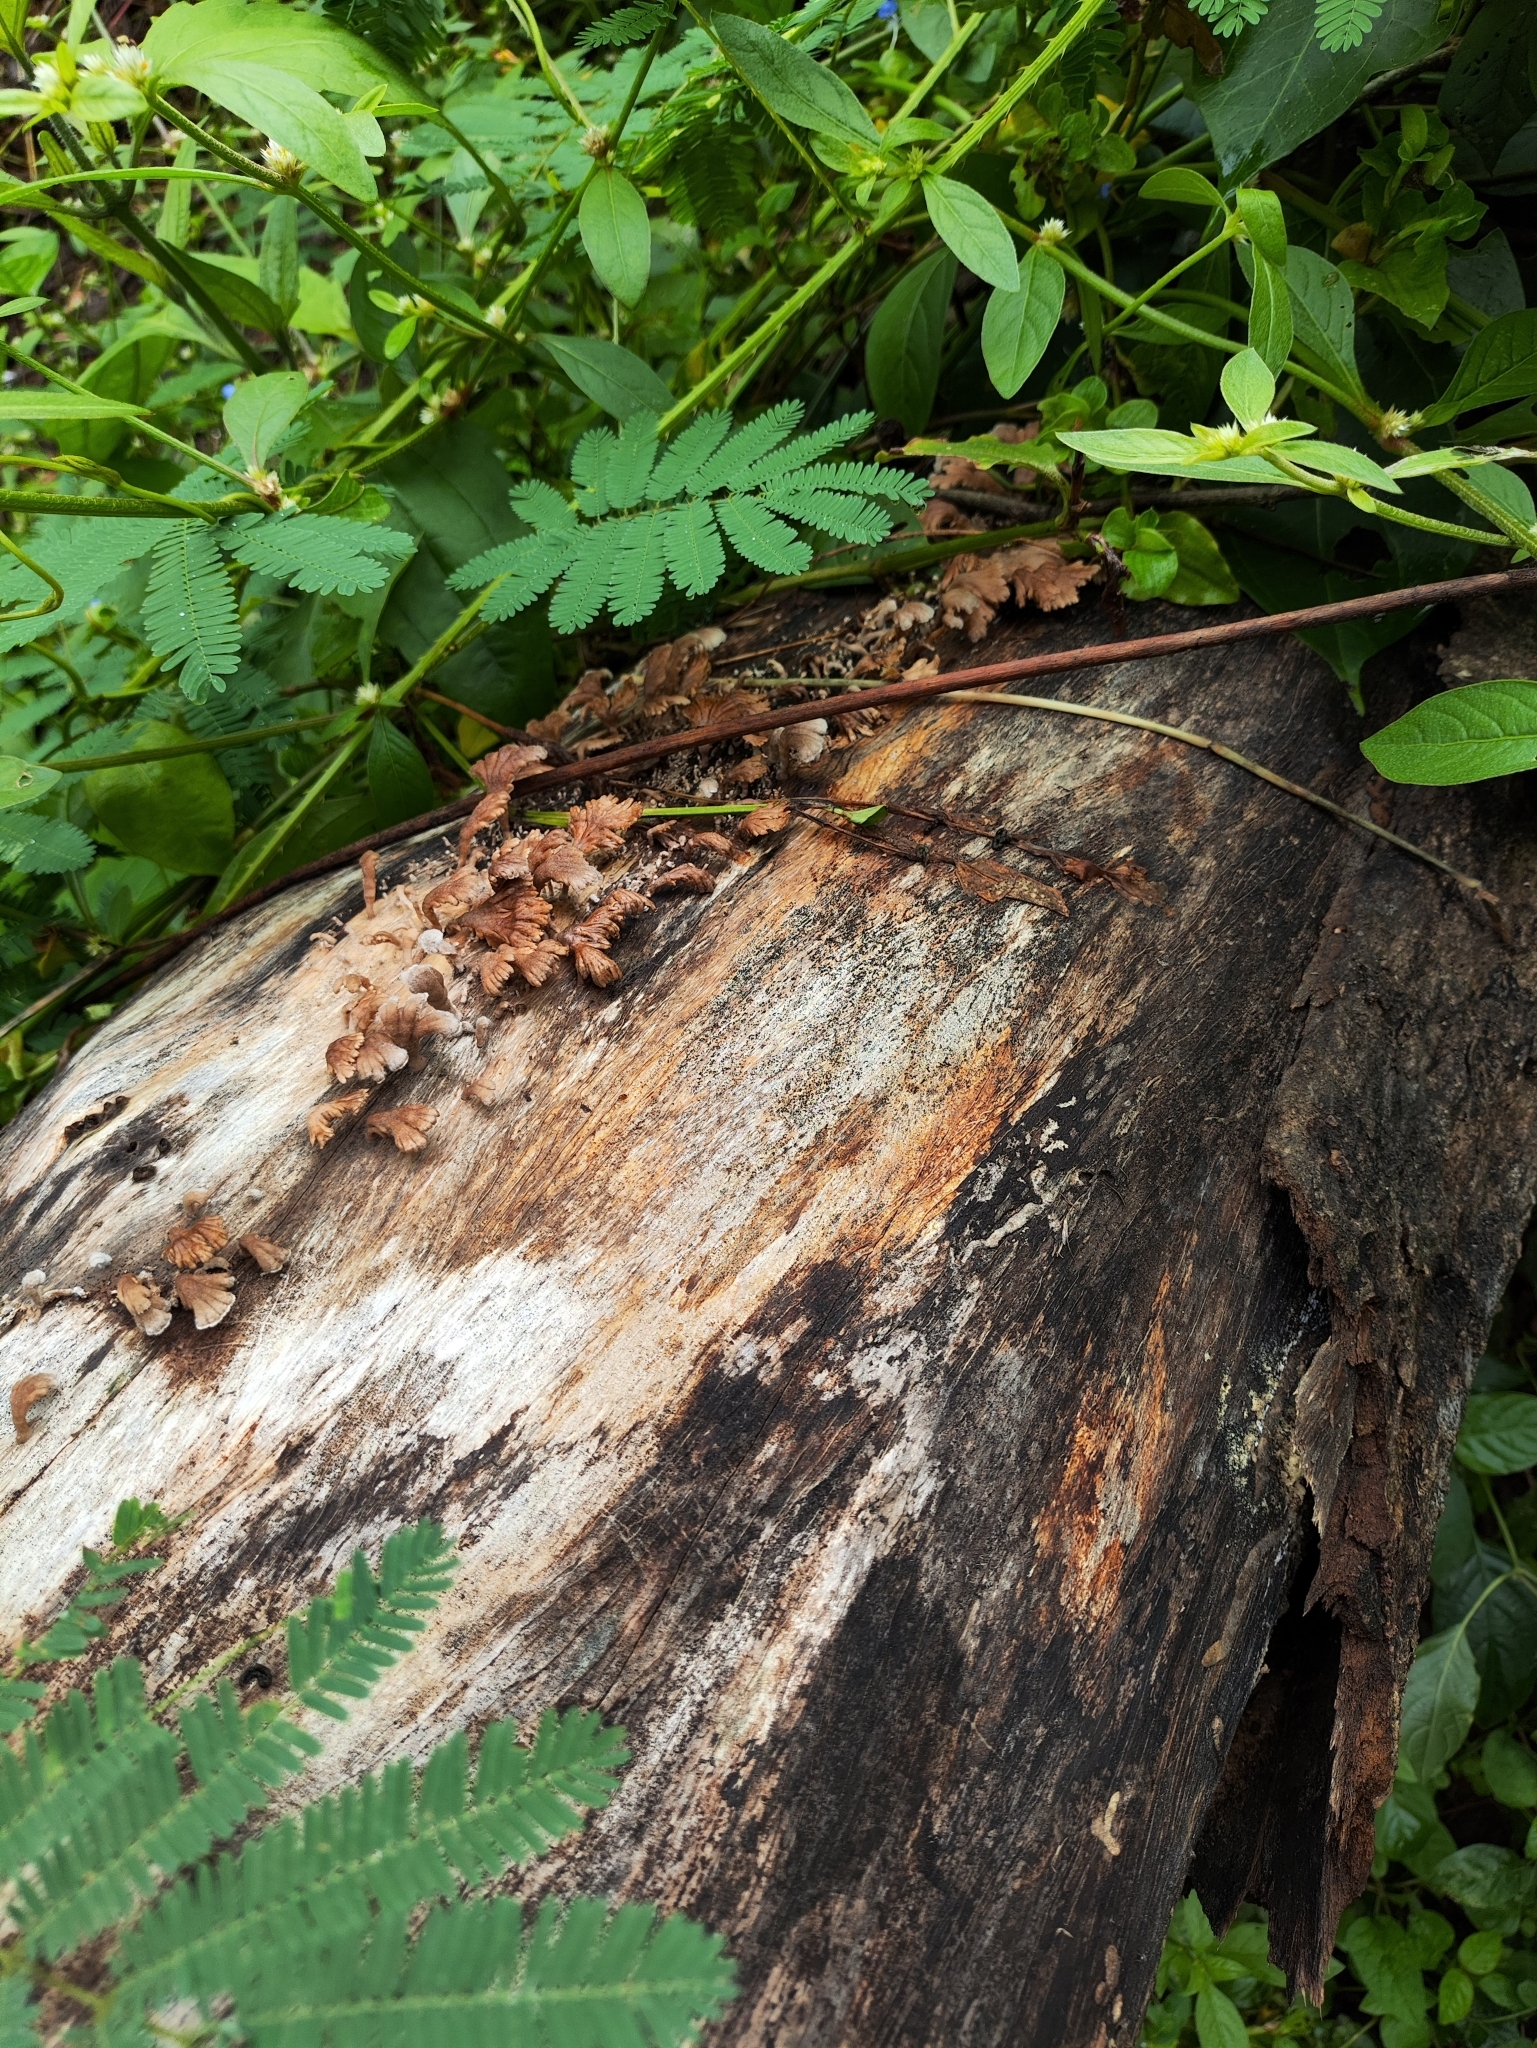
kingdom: Fungi
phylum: Basidiomycota
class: Agaricomycetes
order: Agaricales
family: Schizophyllaceae
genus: Schizophyllum
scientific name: Schizophyllum commune
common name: Common porecrust
